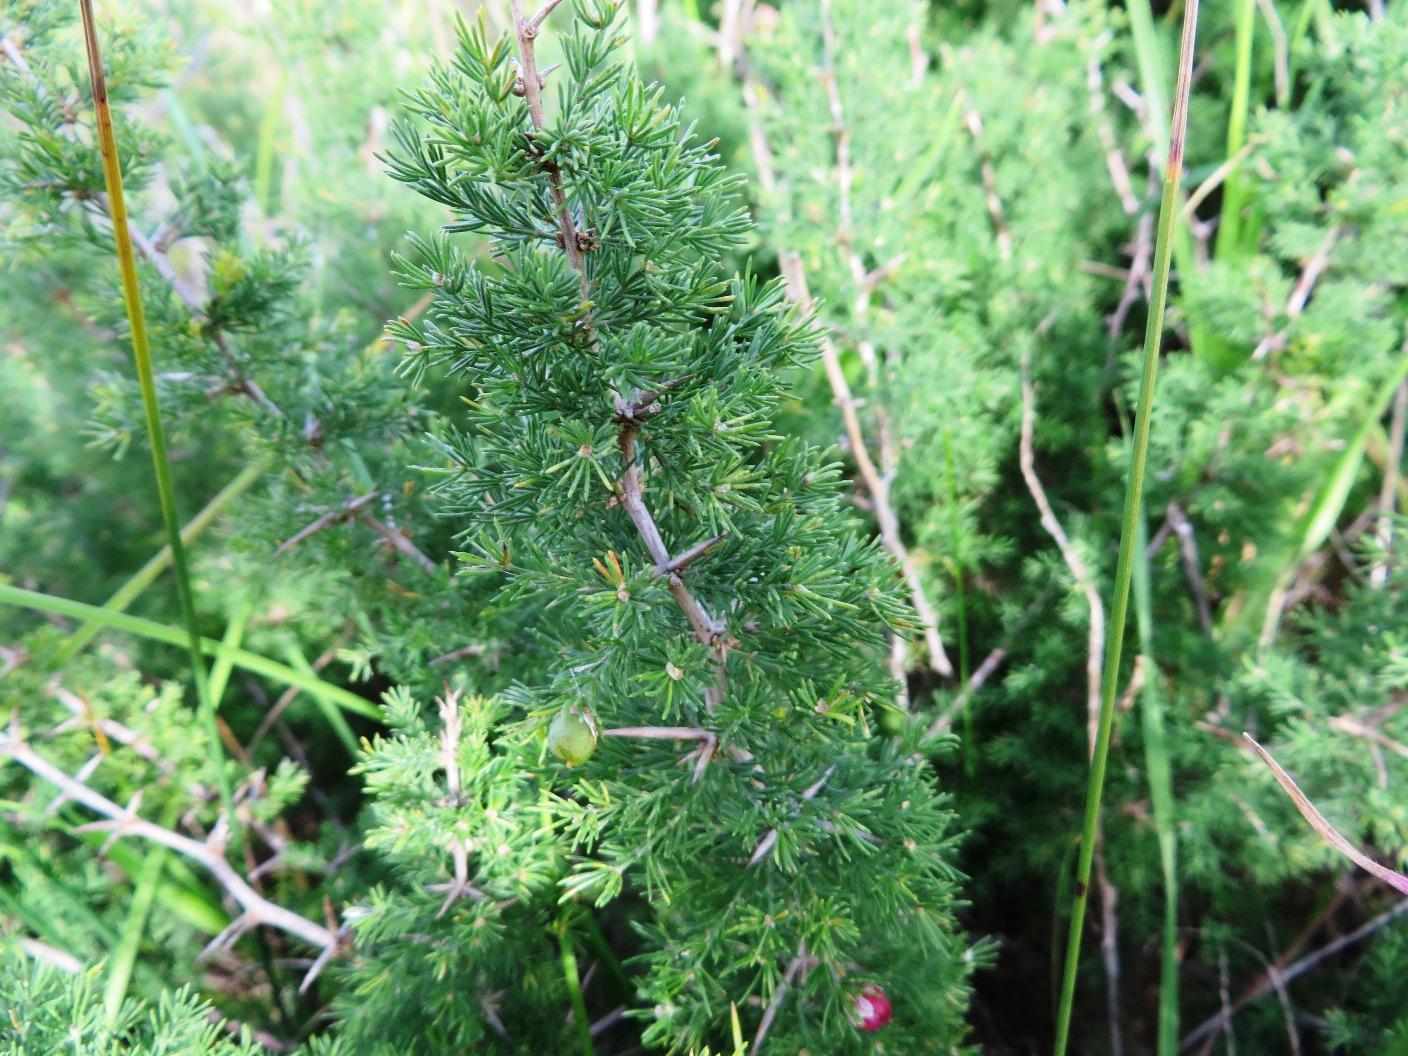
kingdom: Plantae
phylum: Tracheophyta
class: Liliopsida
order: Asparagales
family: Asparagaceae
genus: Asparagus
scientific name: Asparagus capensis
